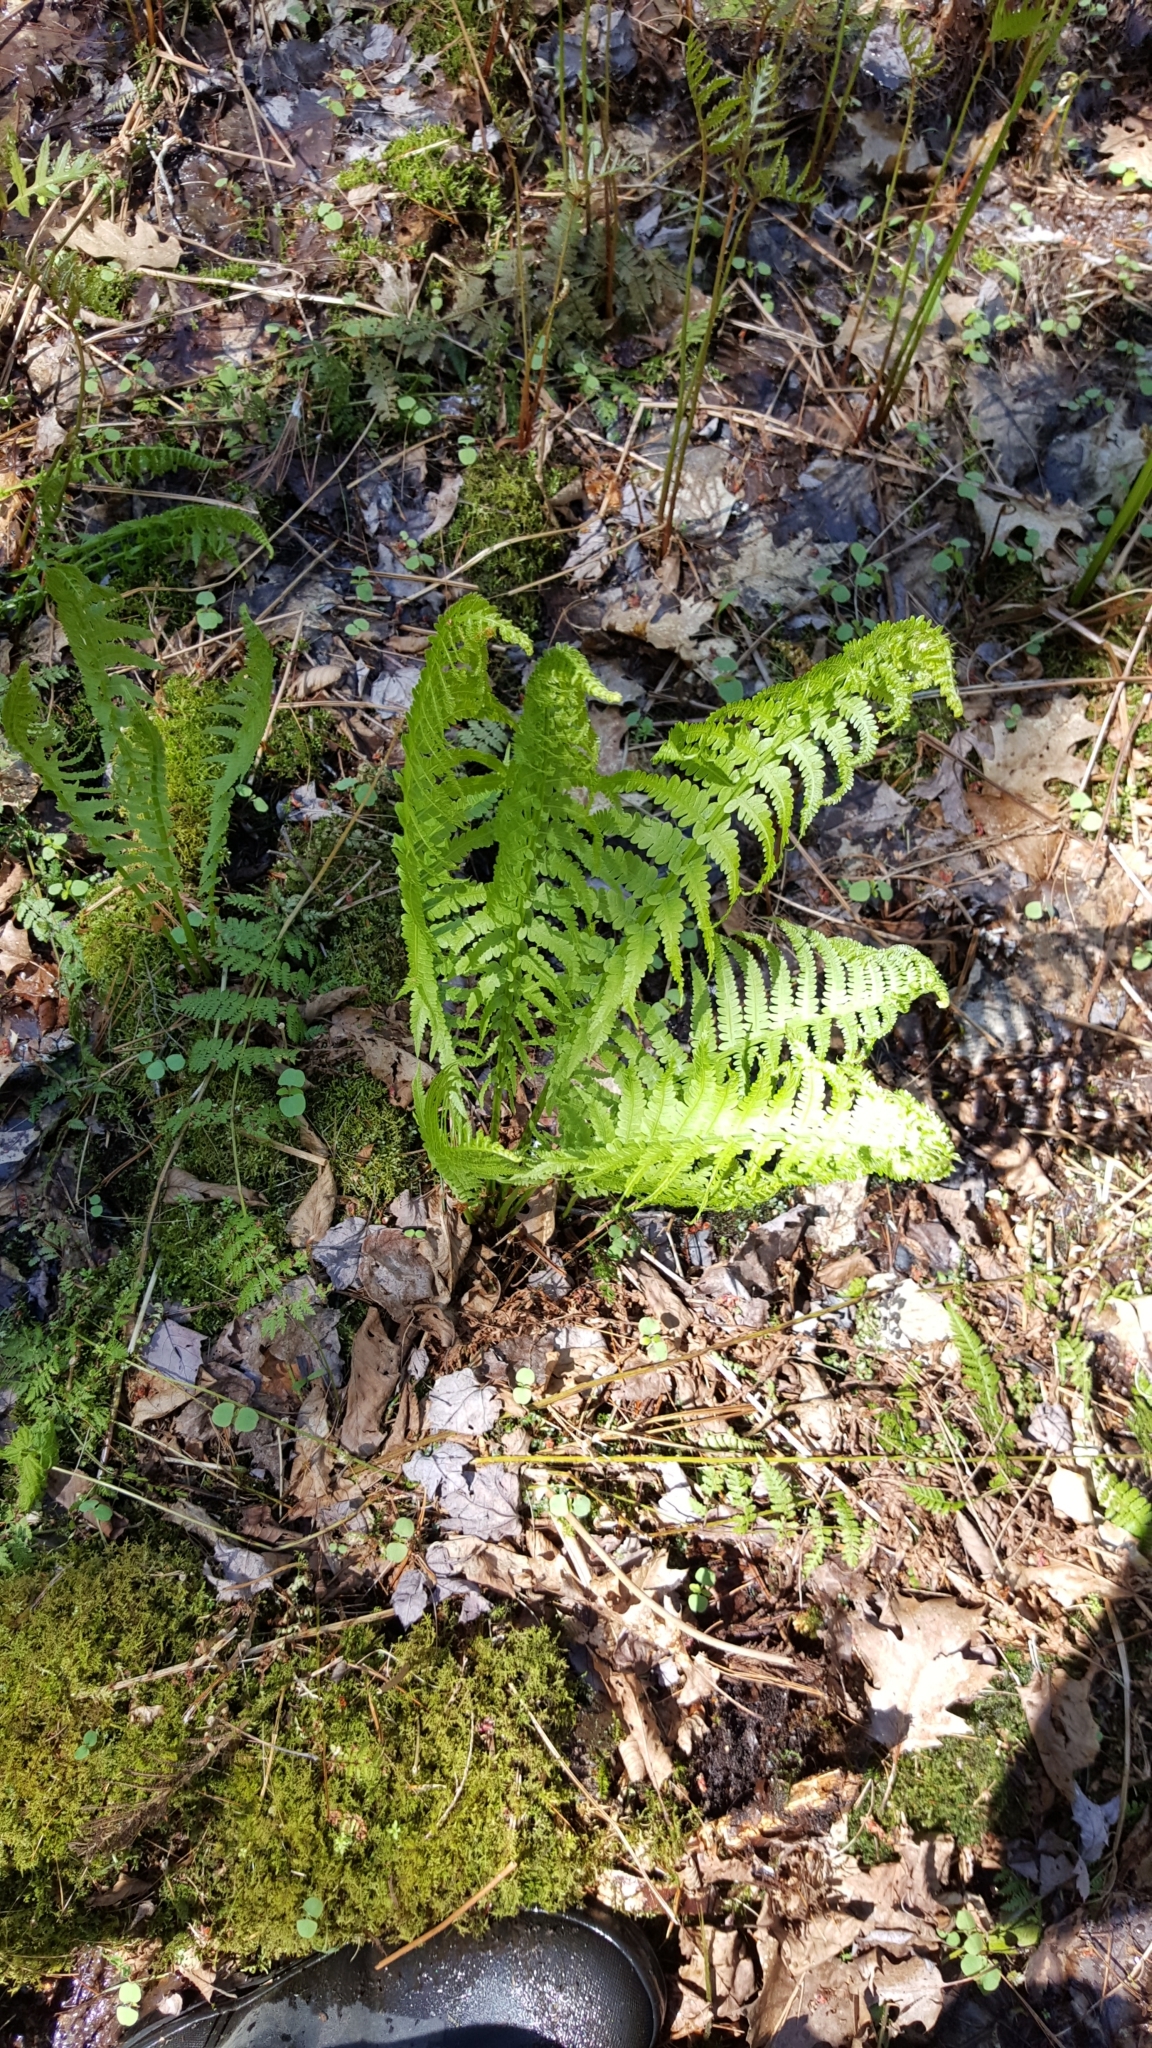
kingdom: Plantae
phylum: Tracheophyta
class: Polypodiopsida
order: Polypodiales
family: Onocleaceae
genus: Matteuccia
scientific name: Matteuccia struthiopteris
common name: Ostrich fern
